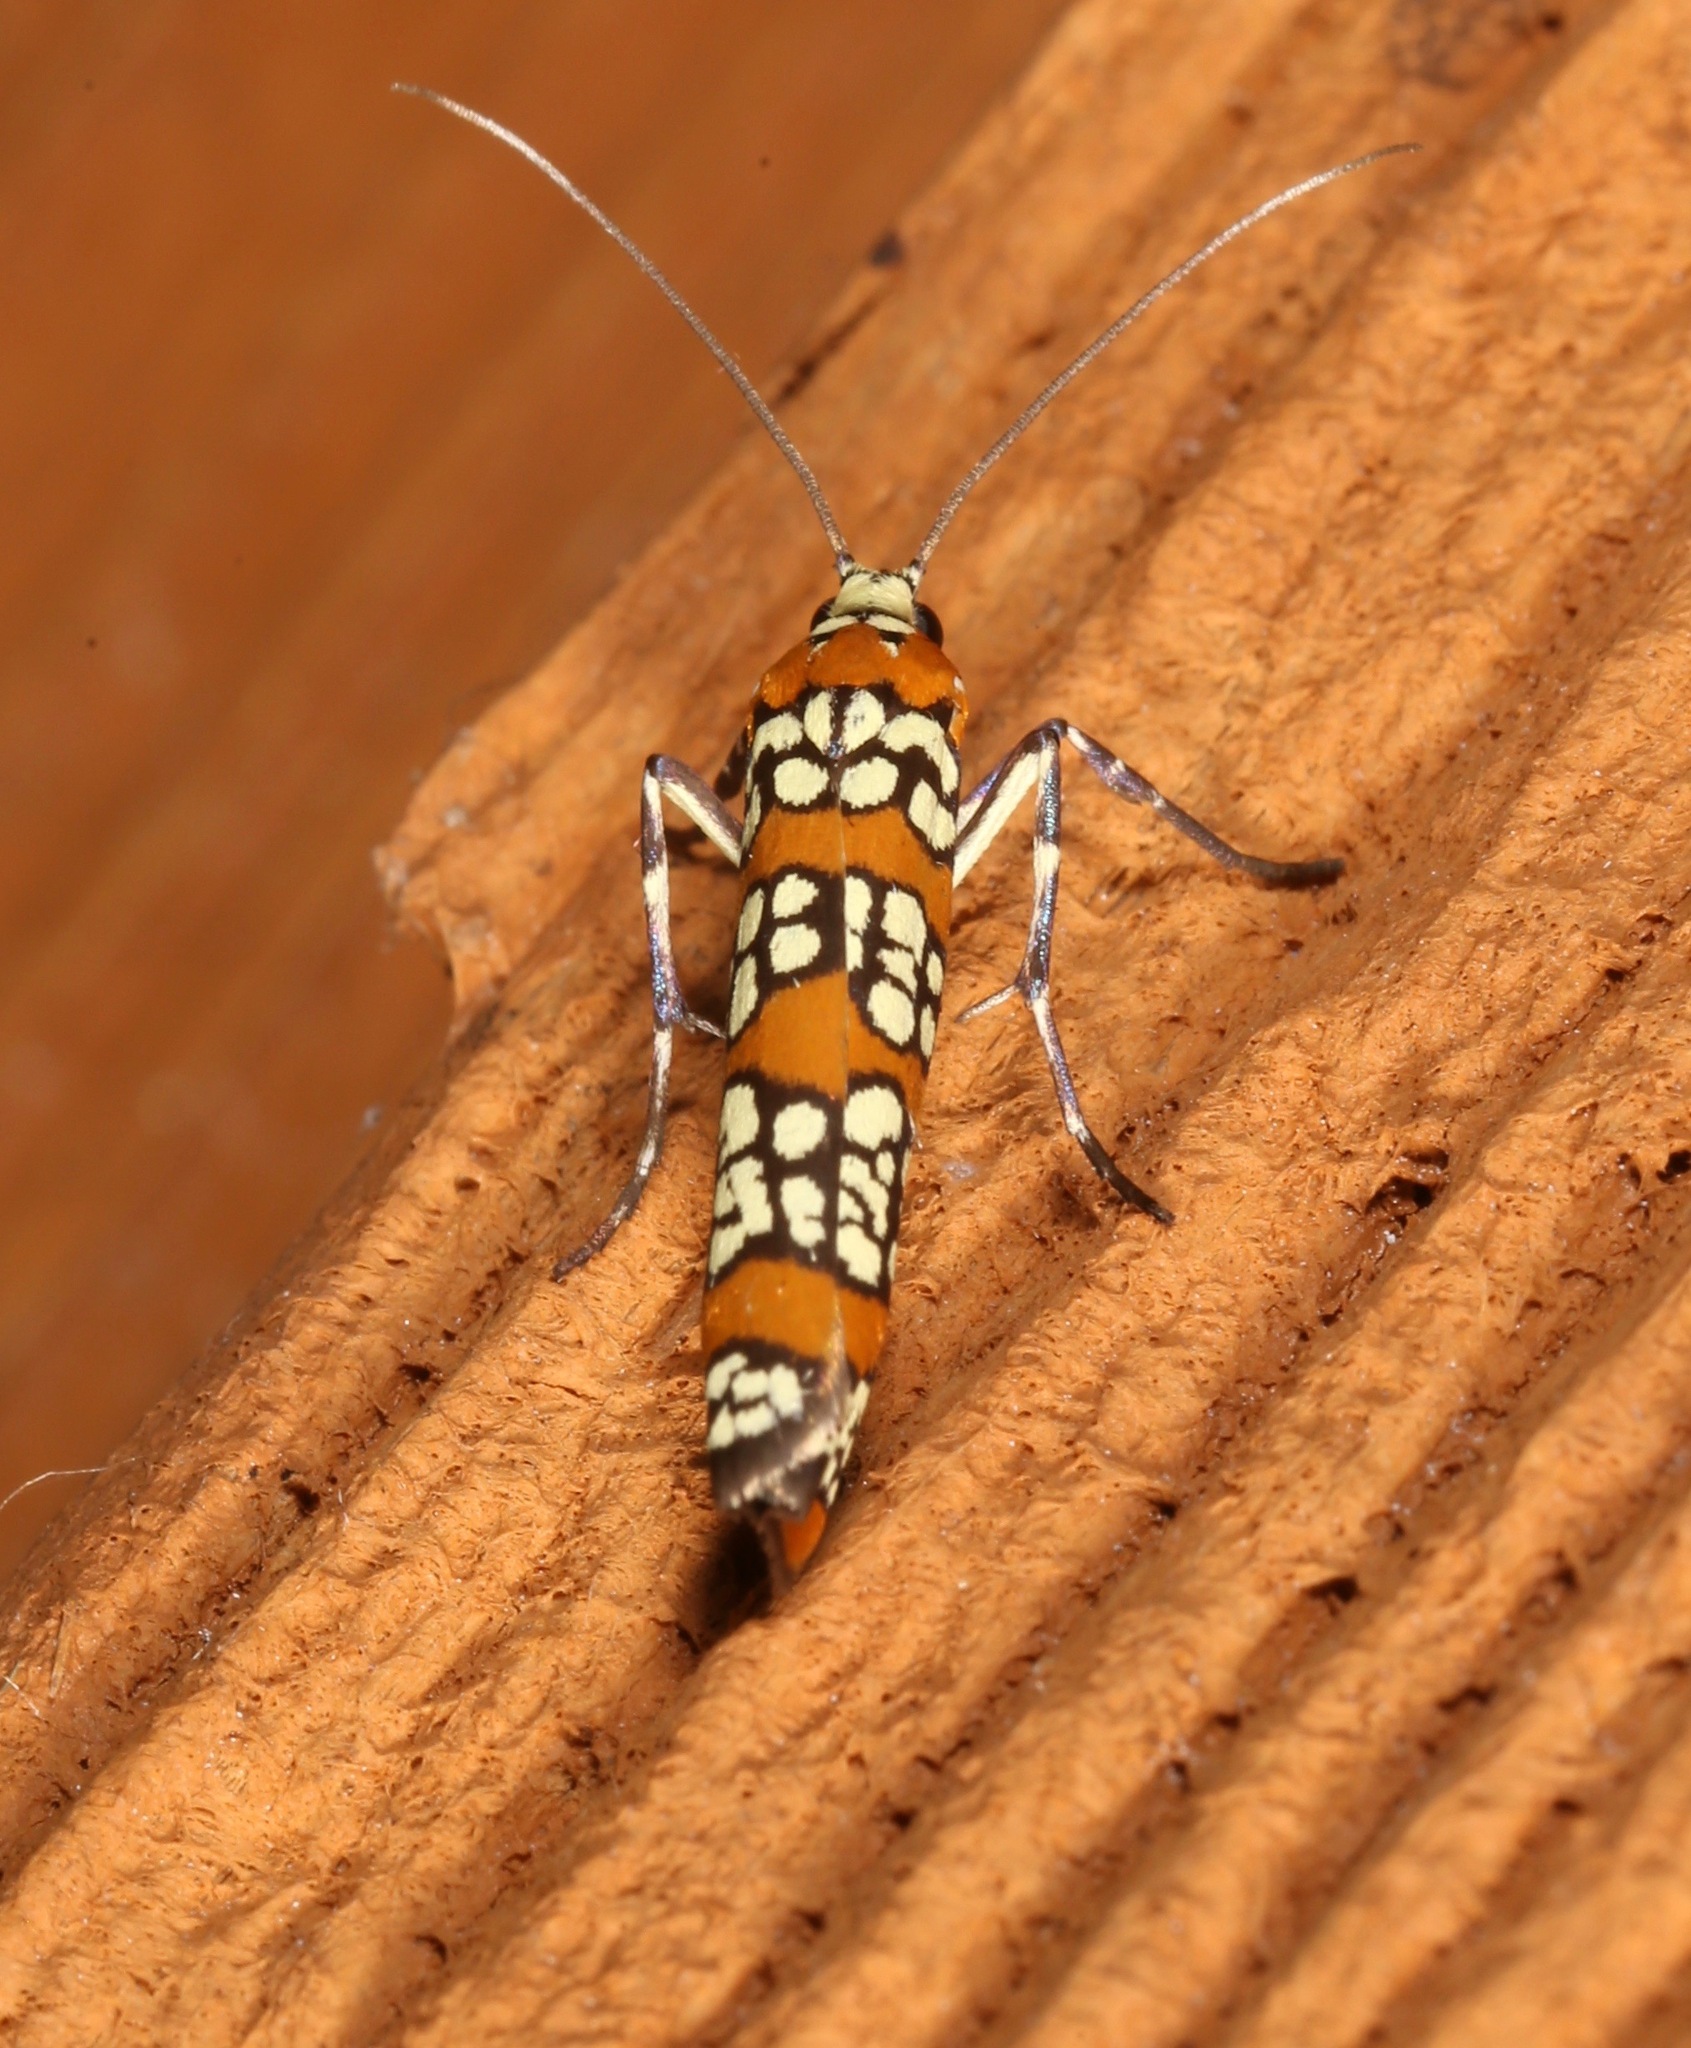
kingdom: Animalia
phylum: Arthropoda
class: Insecta
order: Lepidoptera
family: Attevidae
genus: Atteva
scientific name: Atteva punctella
